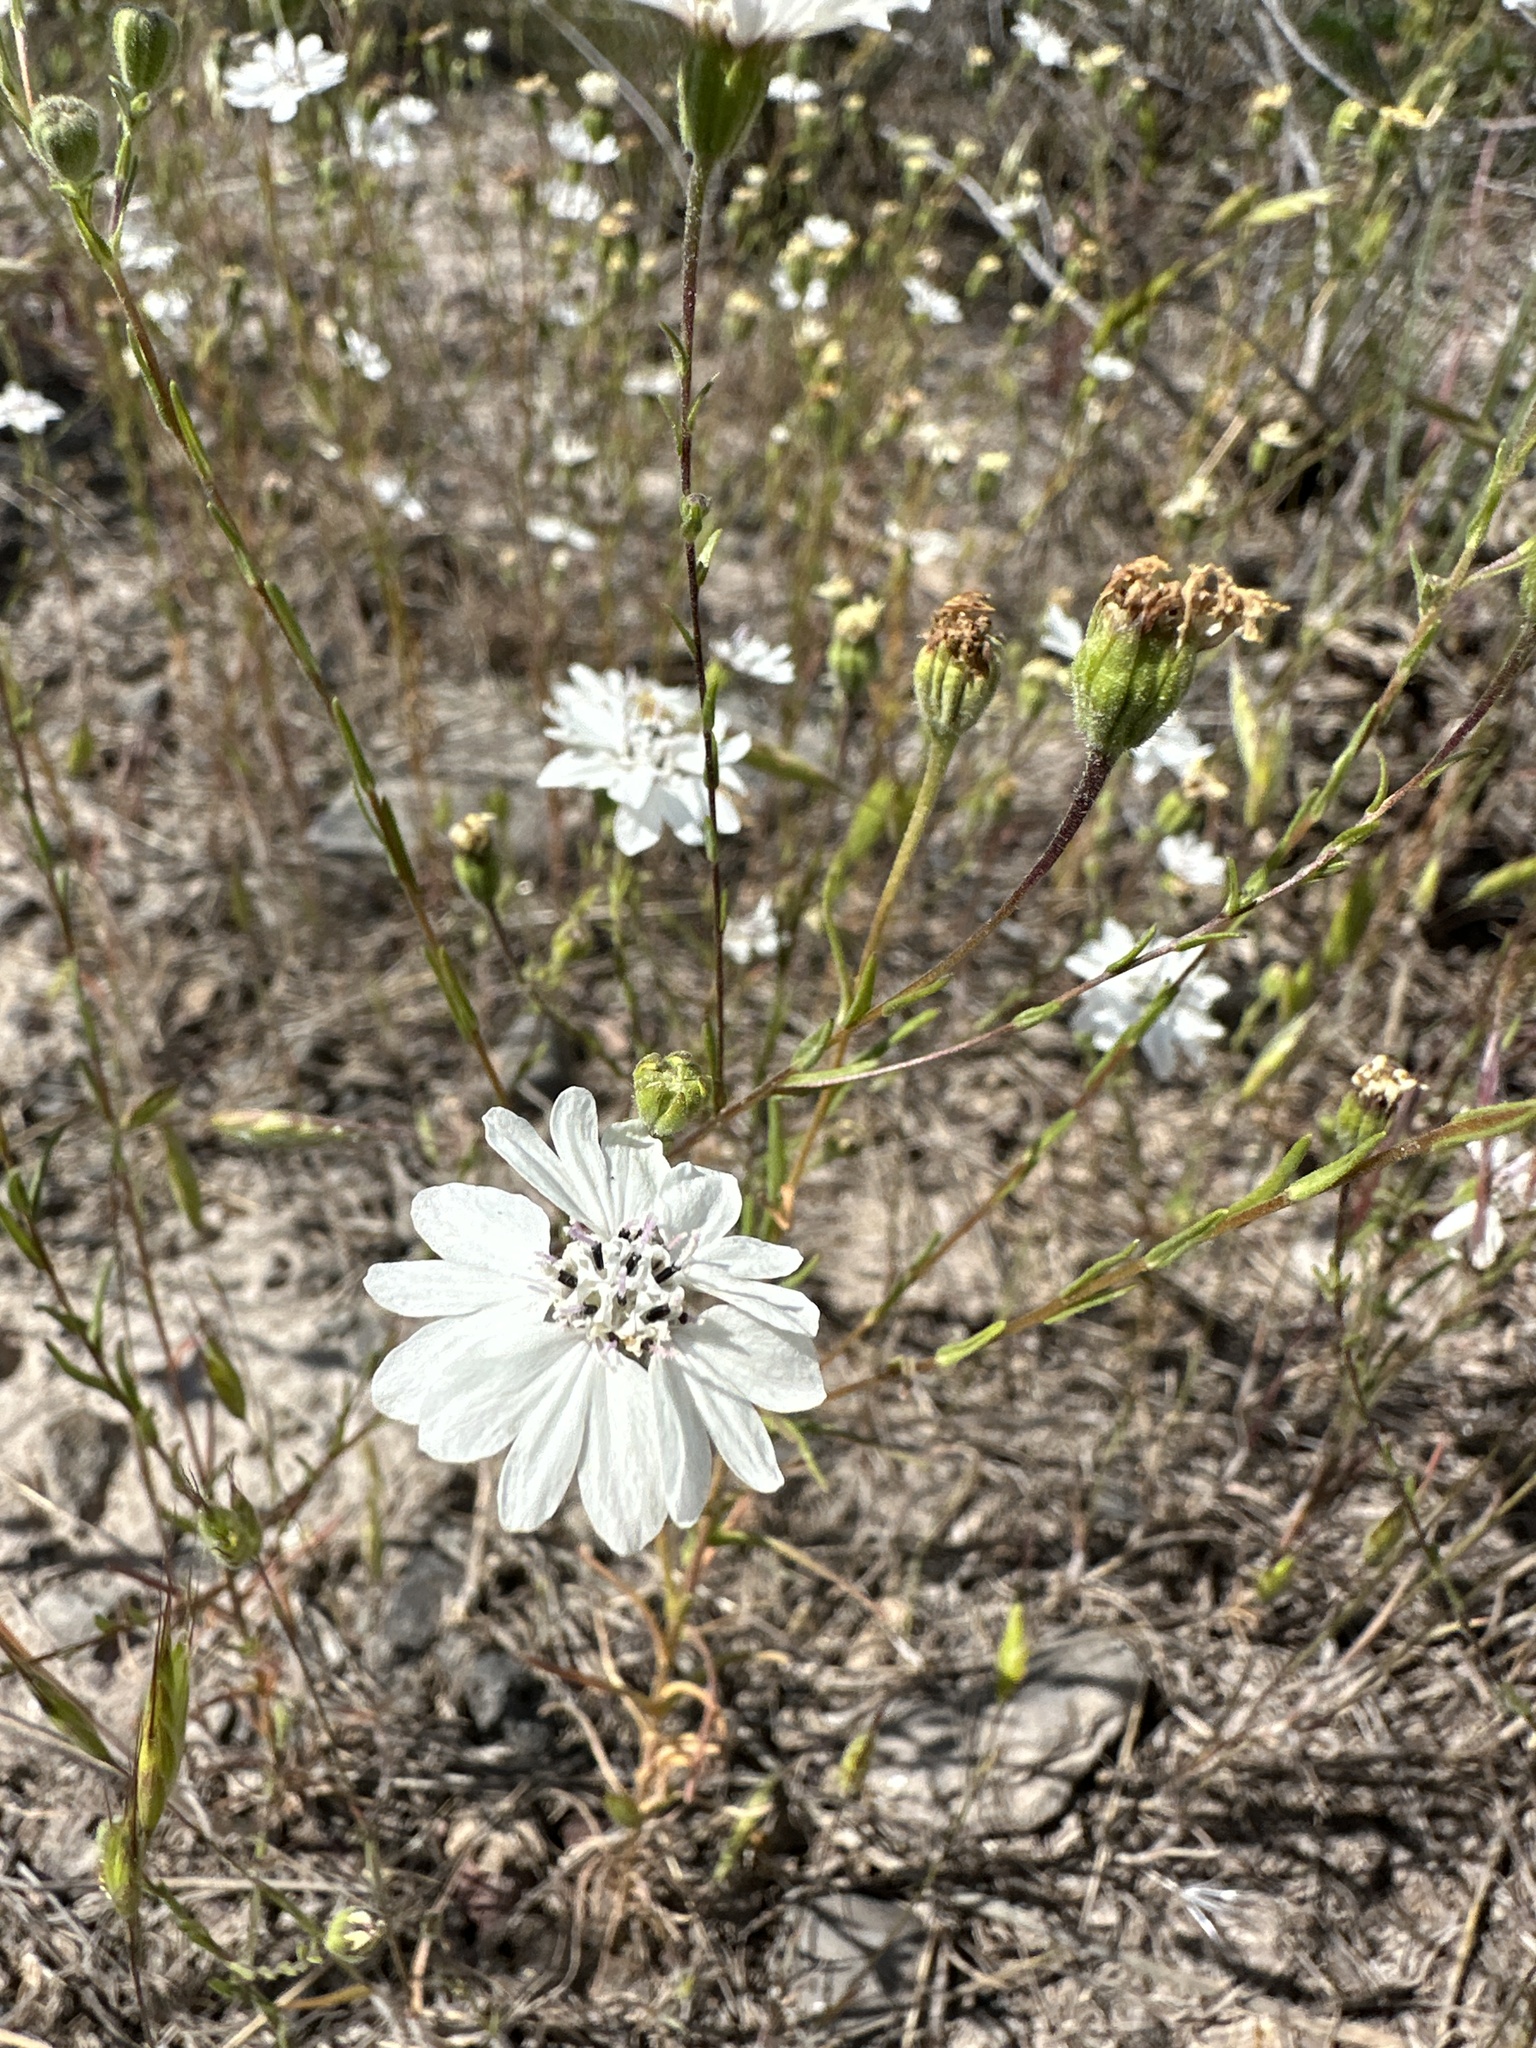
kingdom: Plantae
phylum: Tracheophyta
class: Magnoliopsida
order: Asterales
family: Asteraceae
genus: Blepharipappus
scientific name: Blepharipappus scaber
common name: Rough blepharipappus
